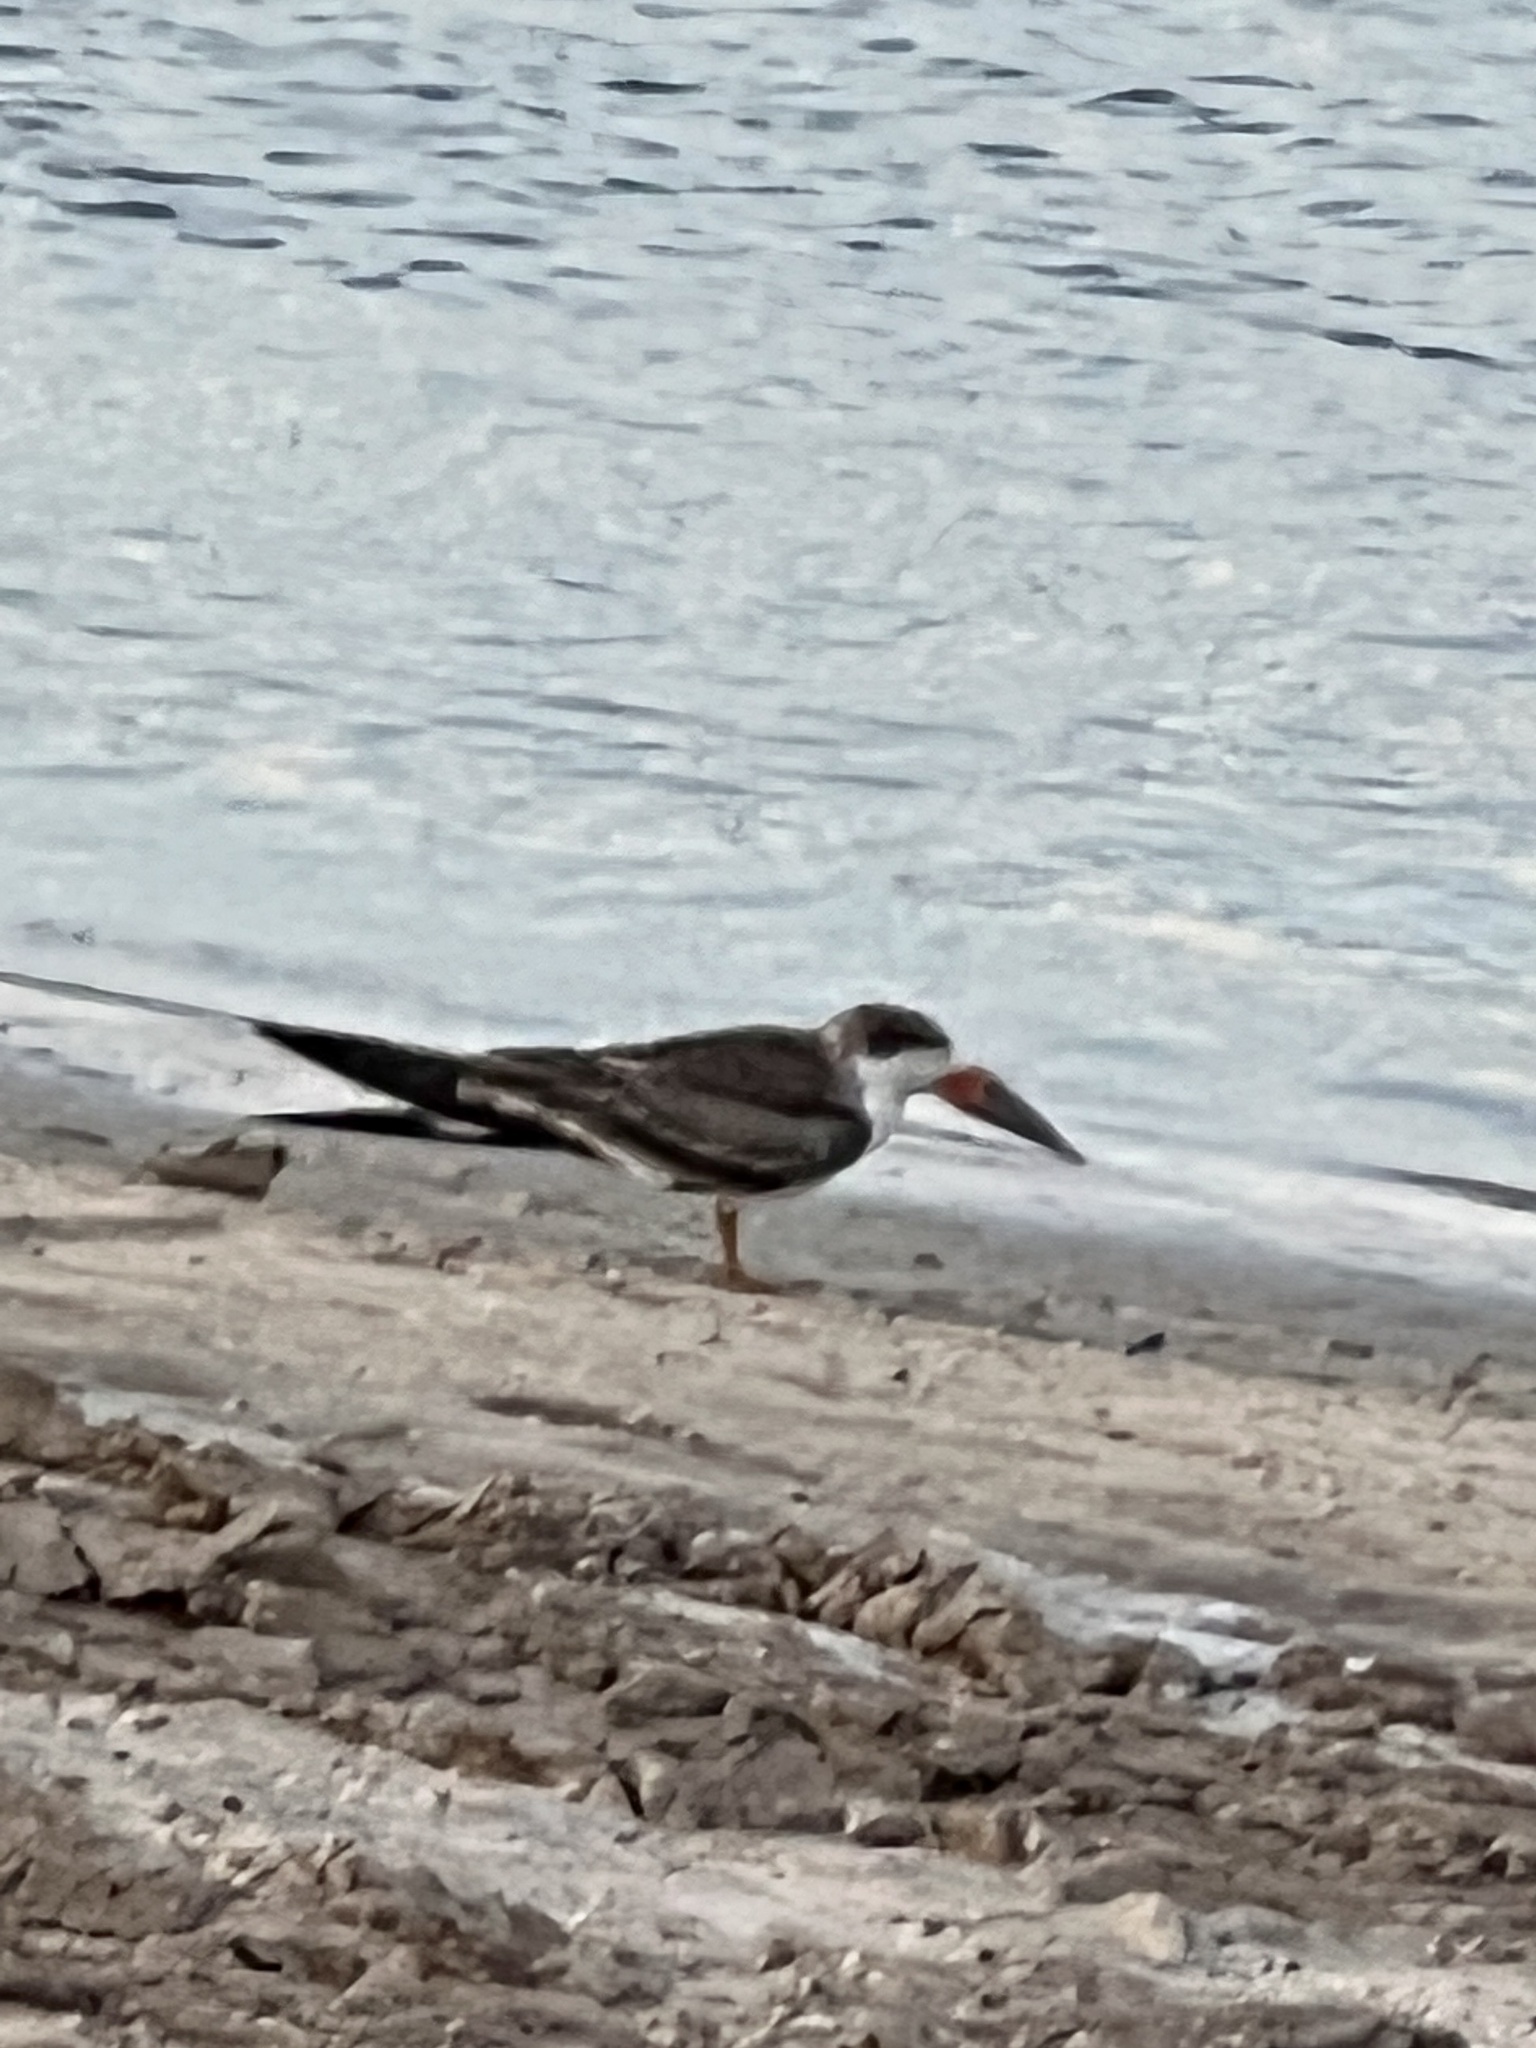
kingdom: Animalia
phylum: Chordata
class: Aves
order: Charadriiformes
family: Laridae
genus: Rynchops
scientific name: Rynchops niger
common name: Black skimmer
